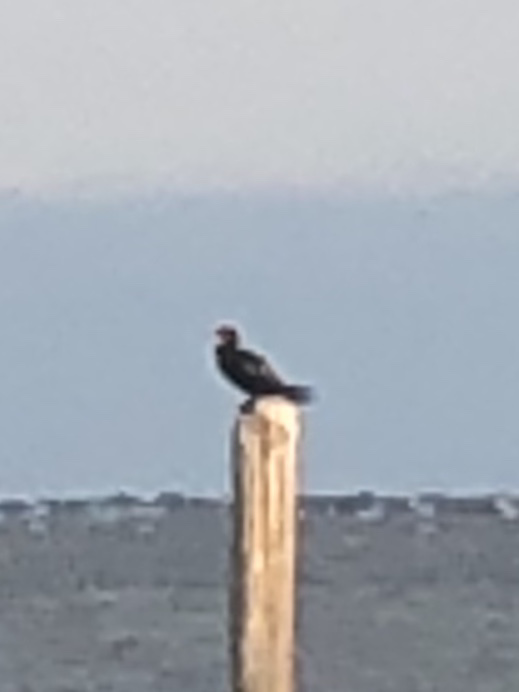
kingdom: Animalia
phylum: Chordata
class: Aves
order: Suliformes
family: Phalacrocoracidae
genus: Phalacrocorax
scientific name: Phalacrocorax auritus
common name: Double-crested cormorant
